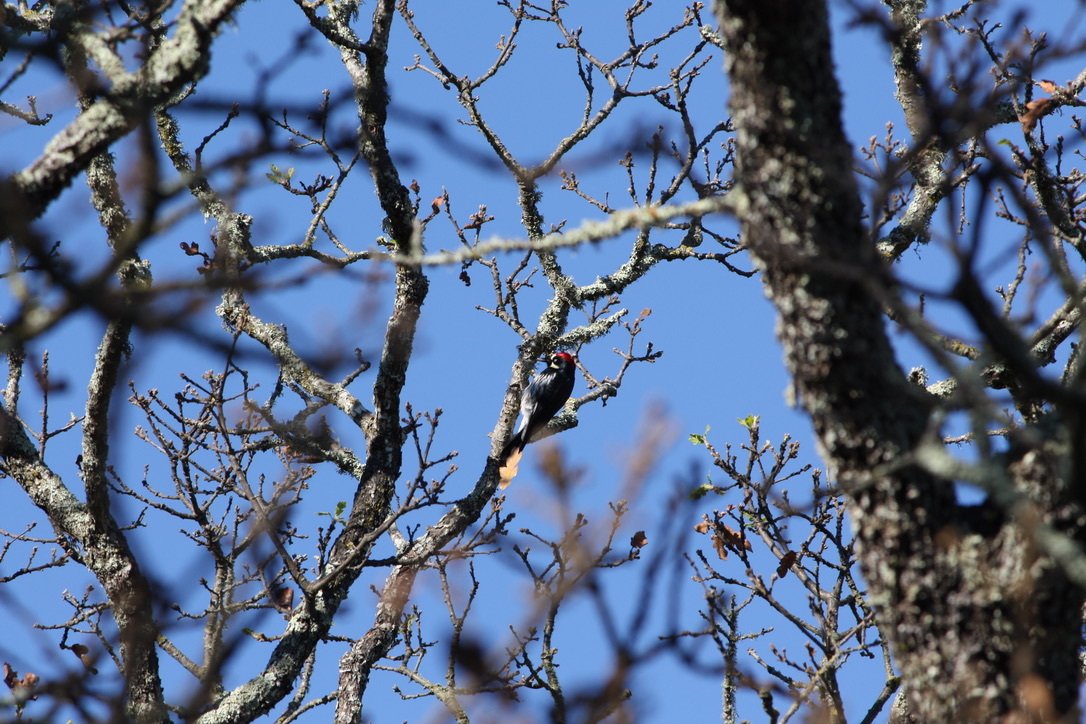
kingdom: Animalia
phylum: Chordata
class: Aves
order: Piciformes
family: Picidae
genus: Melanerpes
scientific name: Melanerpes formicivorus
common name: Acorn woodpecker
